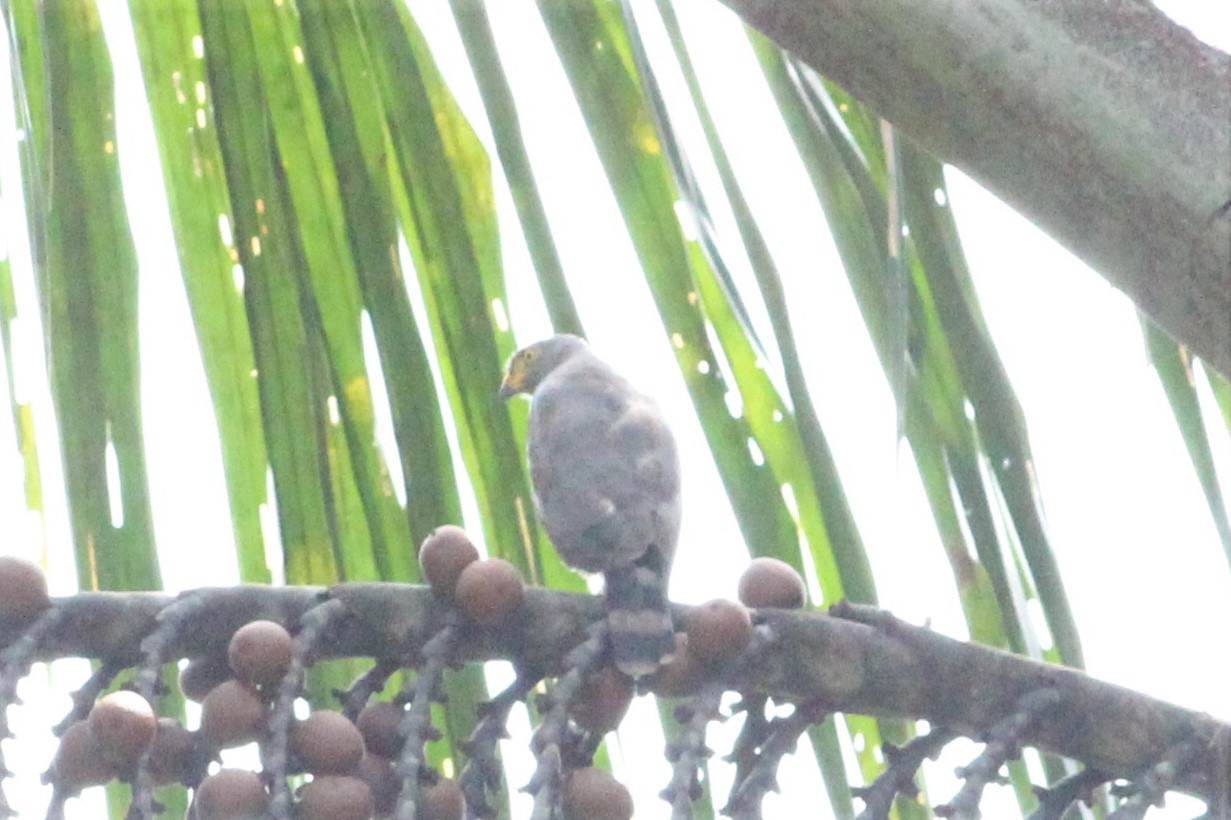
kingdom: Animalia
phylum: Chordata
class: Aves
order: Accipitriformes
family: Accipitridae
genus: Rupornis
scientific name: Rupornis magnirostris
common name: Roadside hawk
